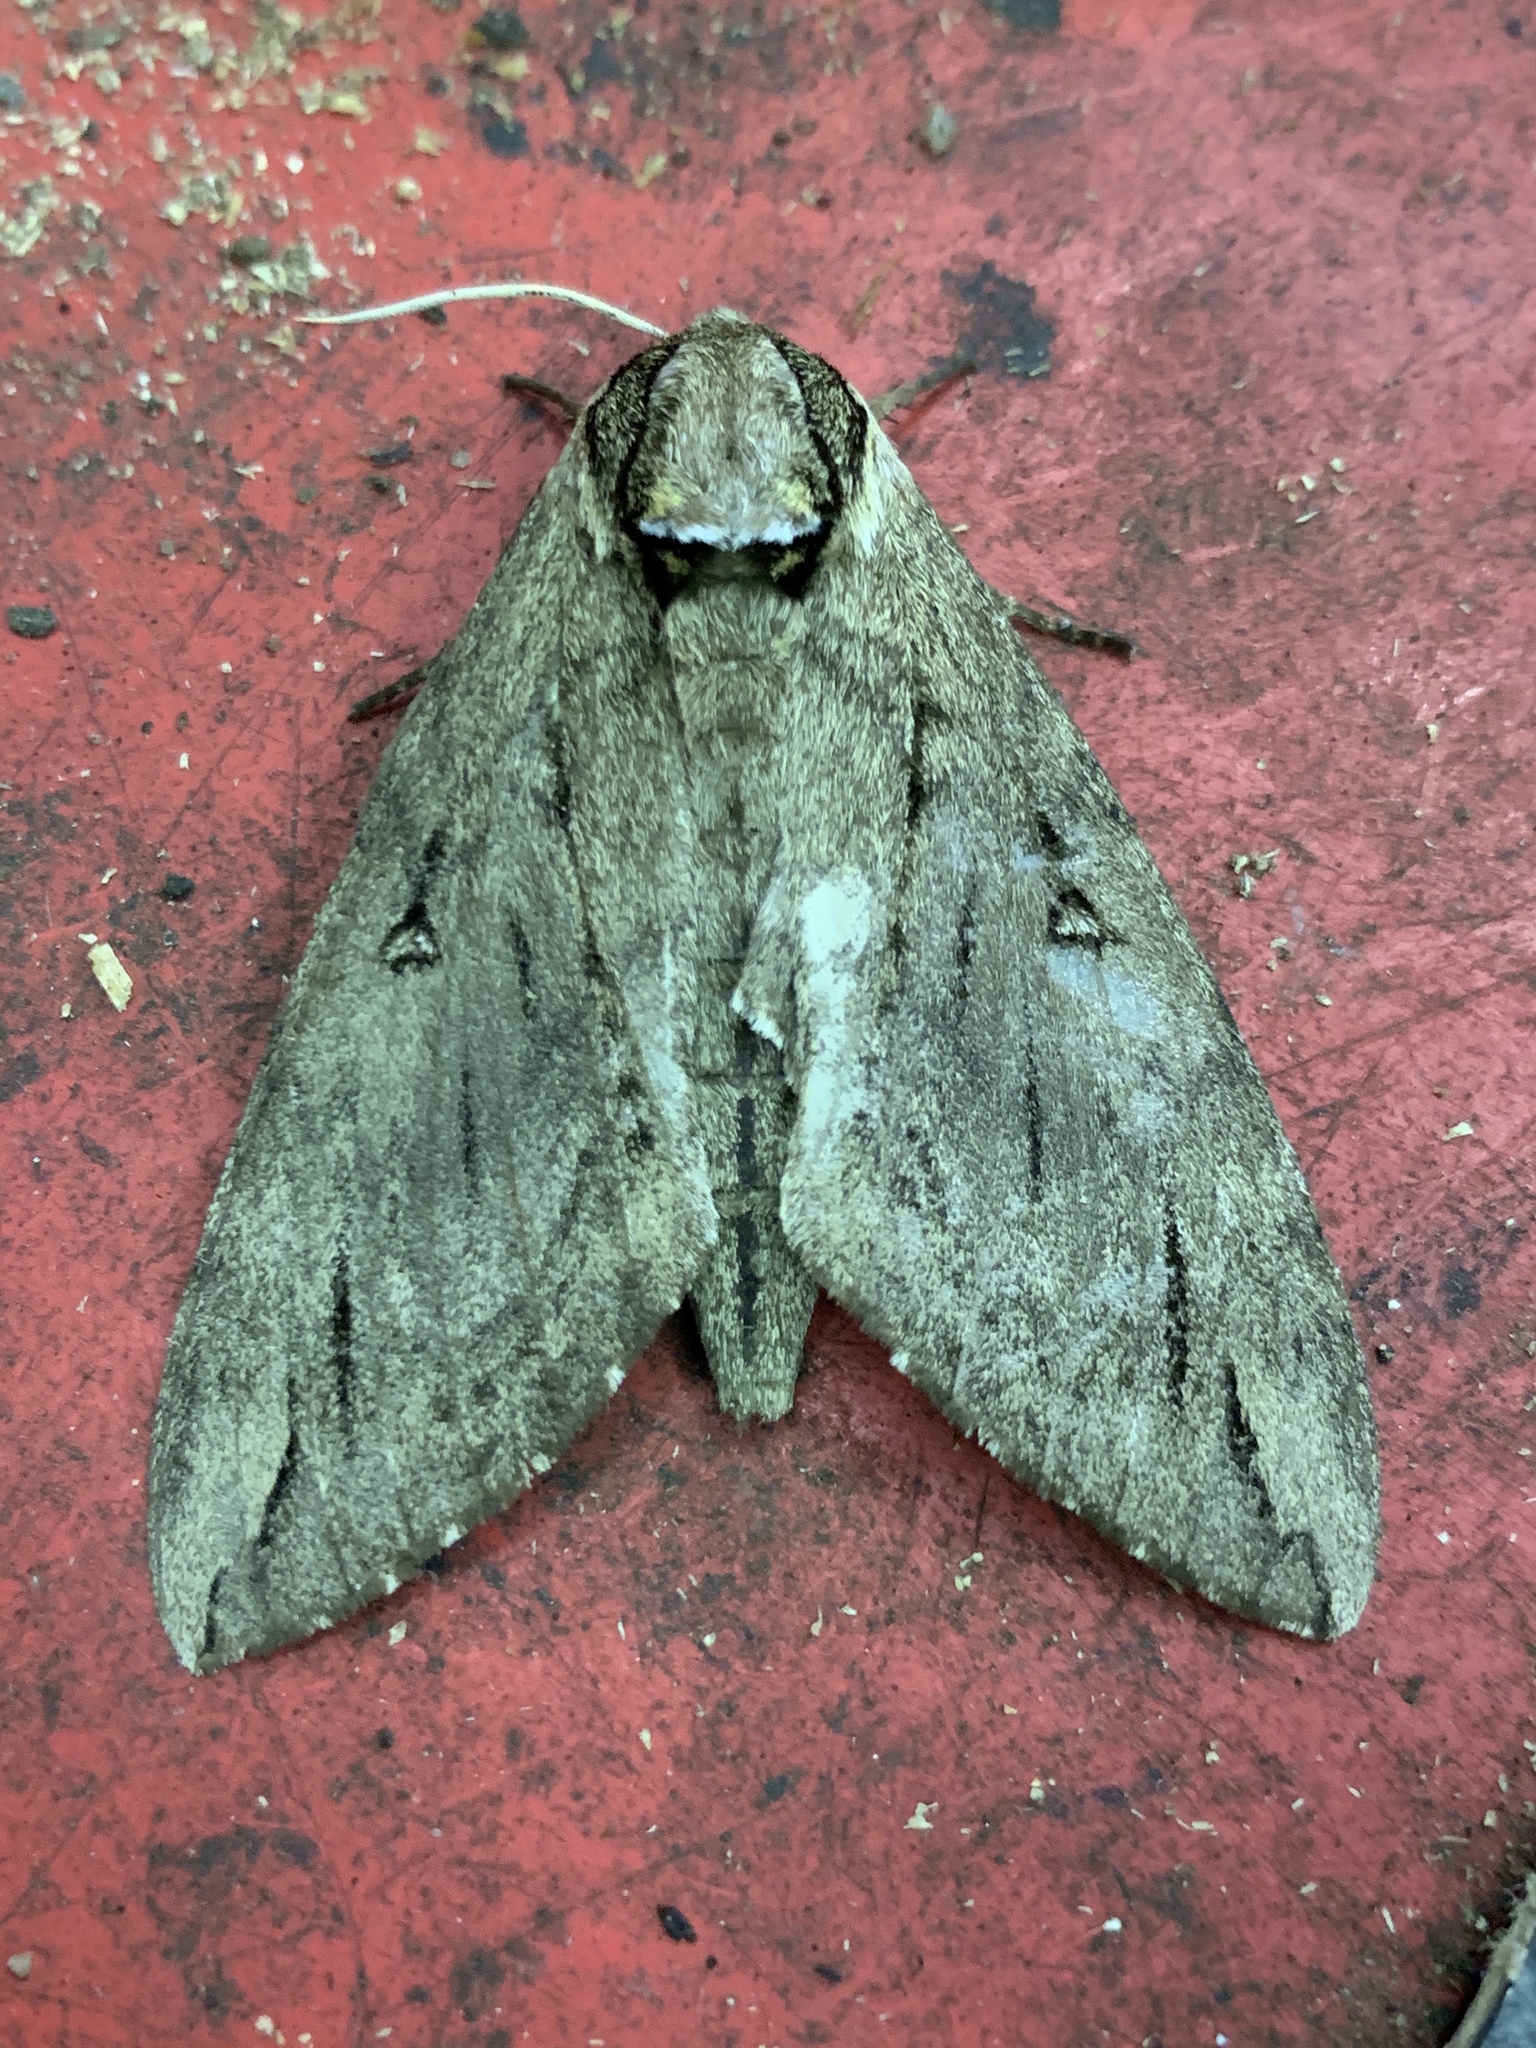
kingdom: Animalia
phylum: Arthropoda
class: Insecta
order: Lepidoptera
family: Sphingidae
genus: Ceratomia
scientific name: Ceratomia catalpae
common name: Catalpa hornworm
